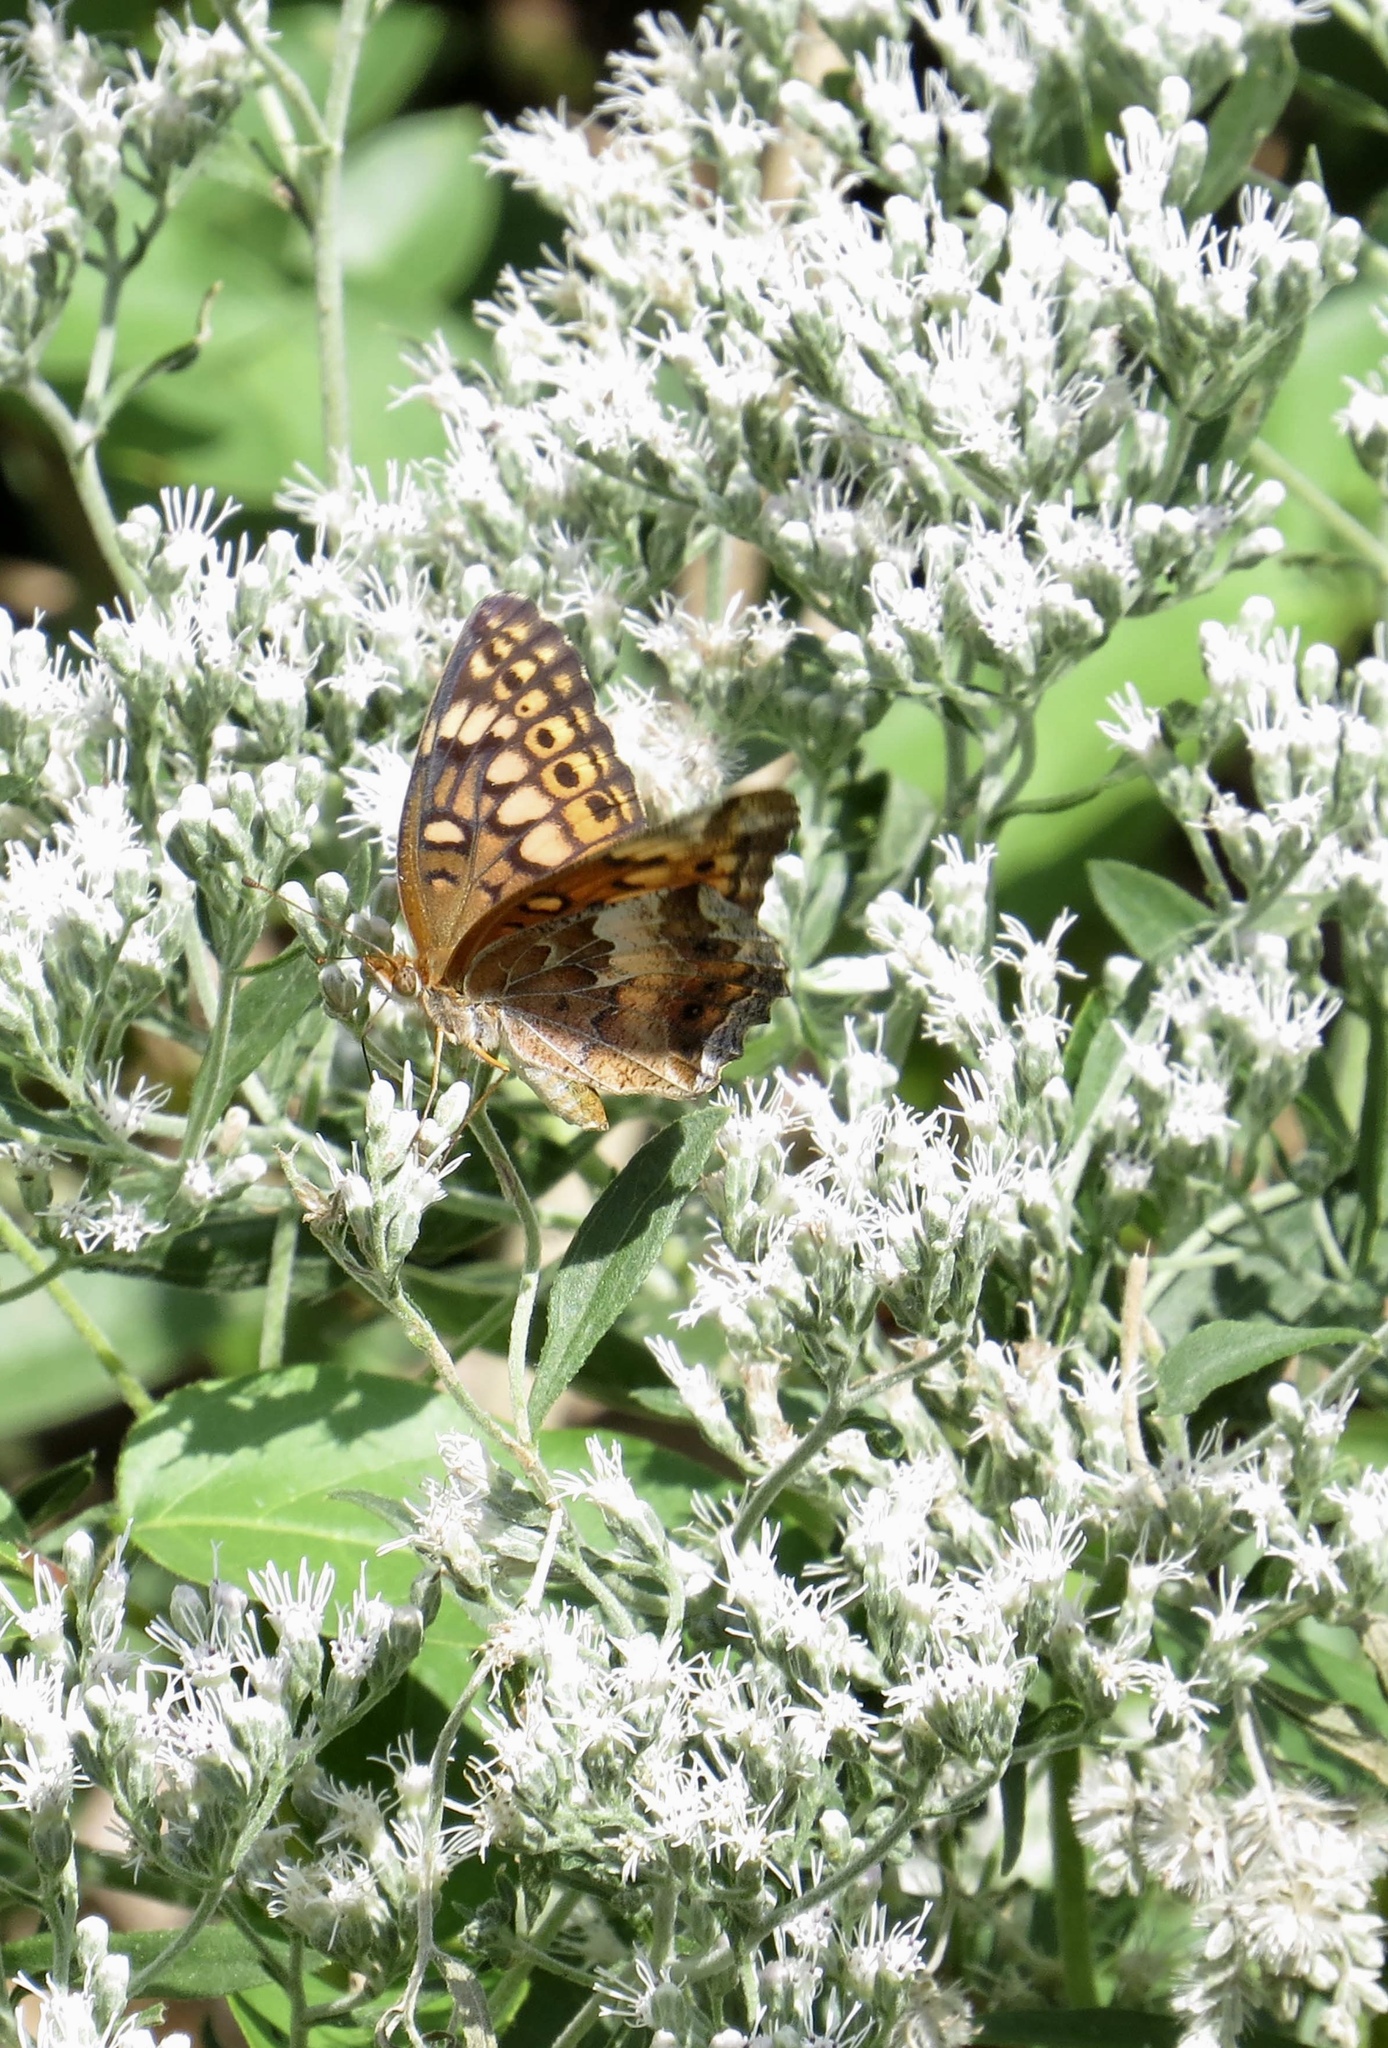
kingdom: Animalia
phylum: Arthropoda
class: Insecta
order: Lepidoptera
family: Nymphalidae
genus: Euptoieta
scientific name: Euptoieta claudia
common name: Variegated fritillary
